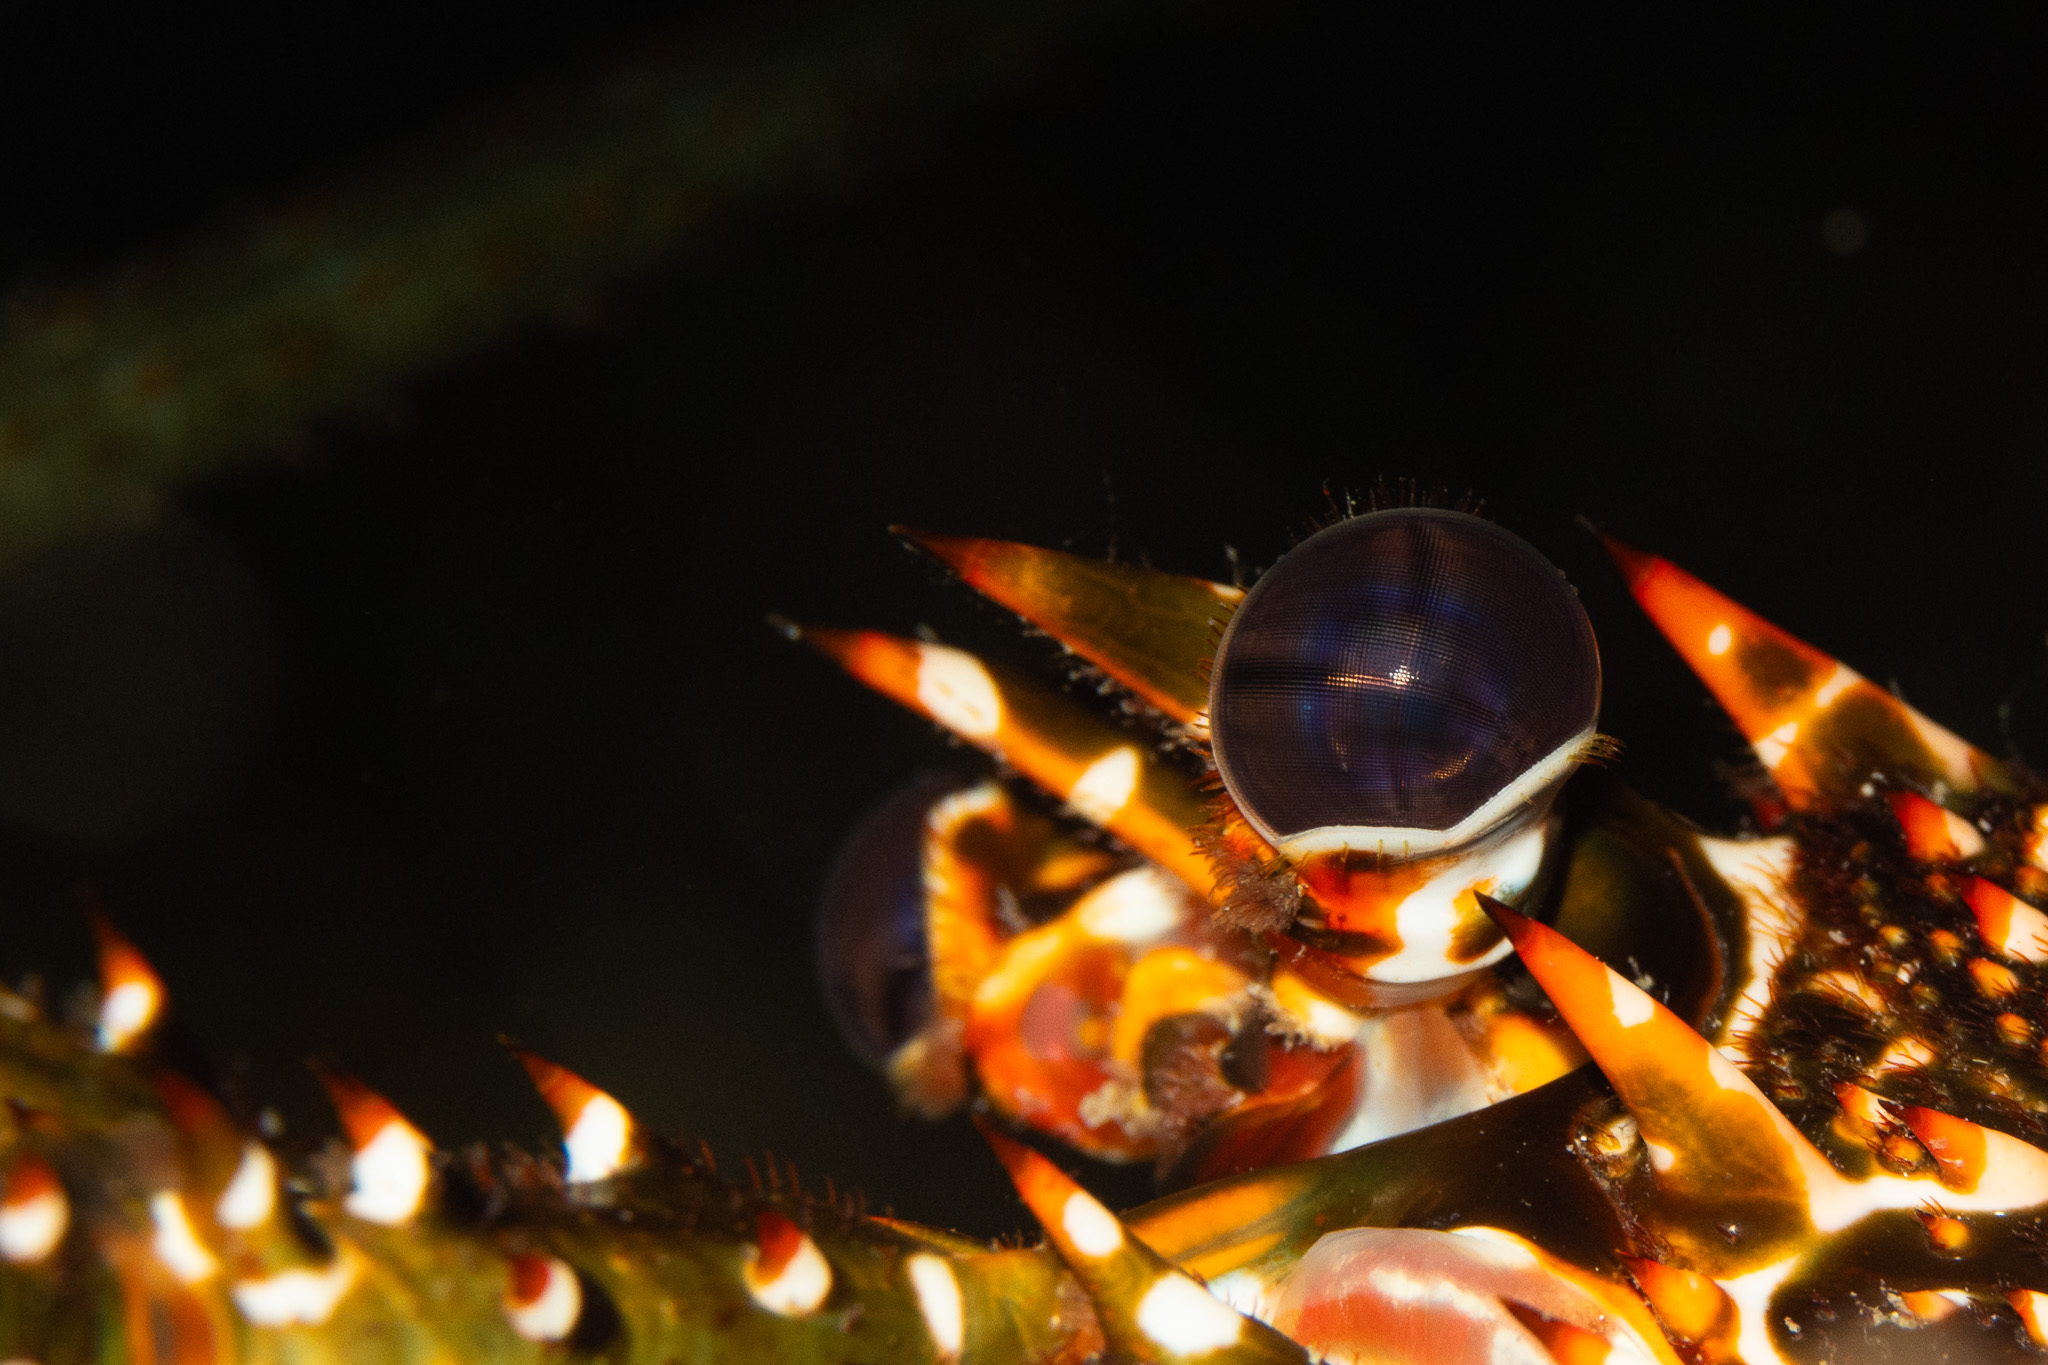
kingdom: Animalia
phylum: Arthropoda
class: Malacostraca
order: Decapoda
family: Palinuridae
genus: Panulirus
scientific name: Panulirus argus
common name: Caribbean spiny lobster
